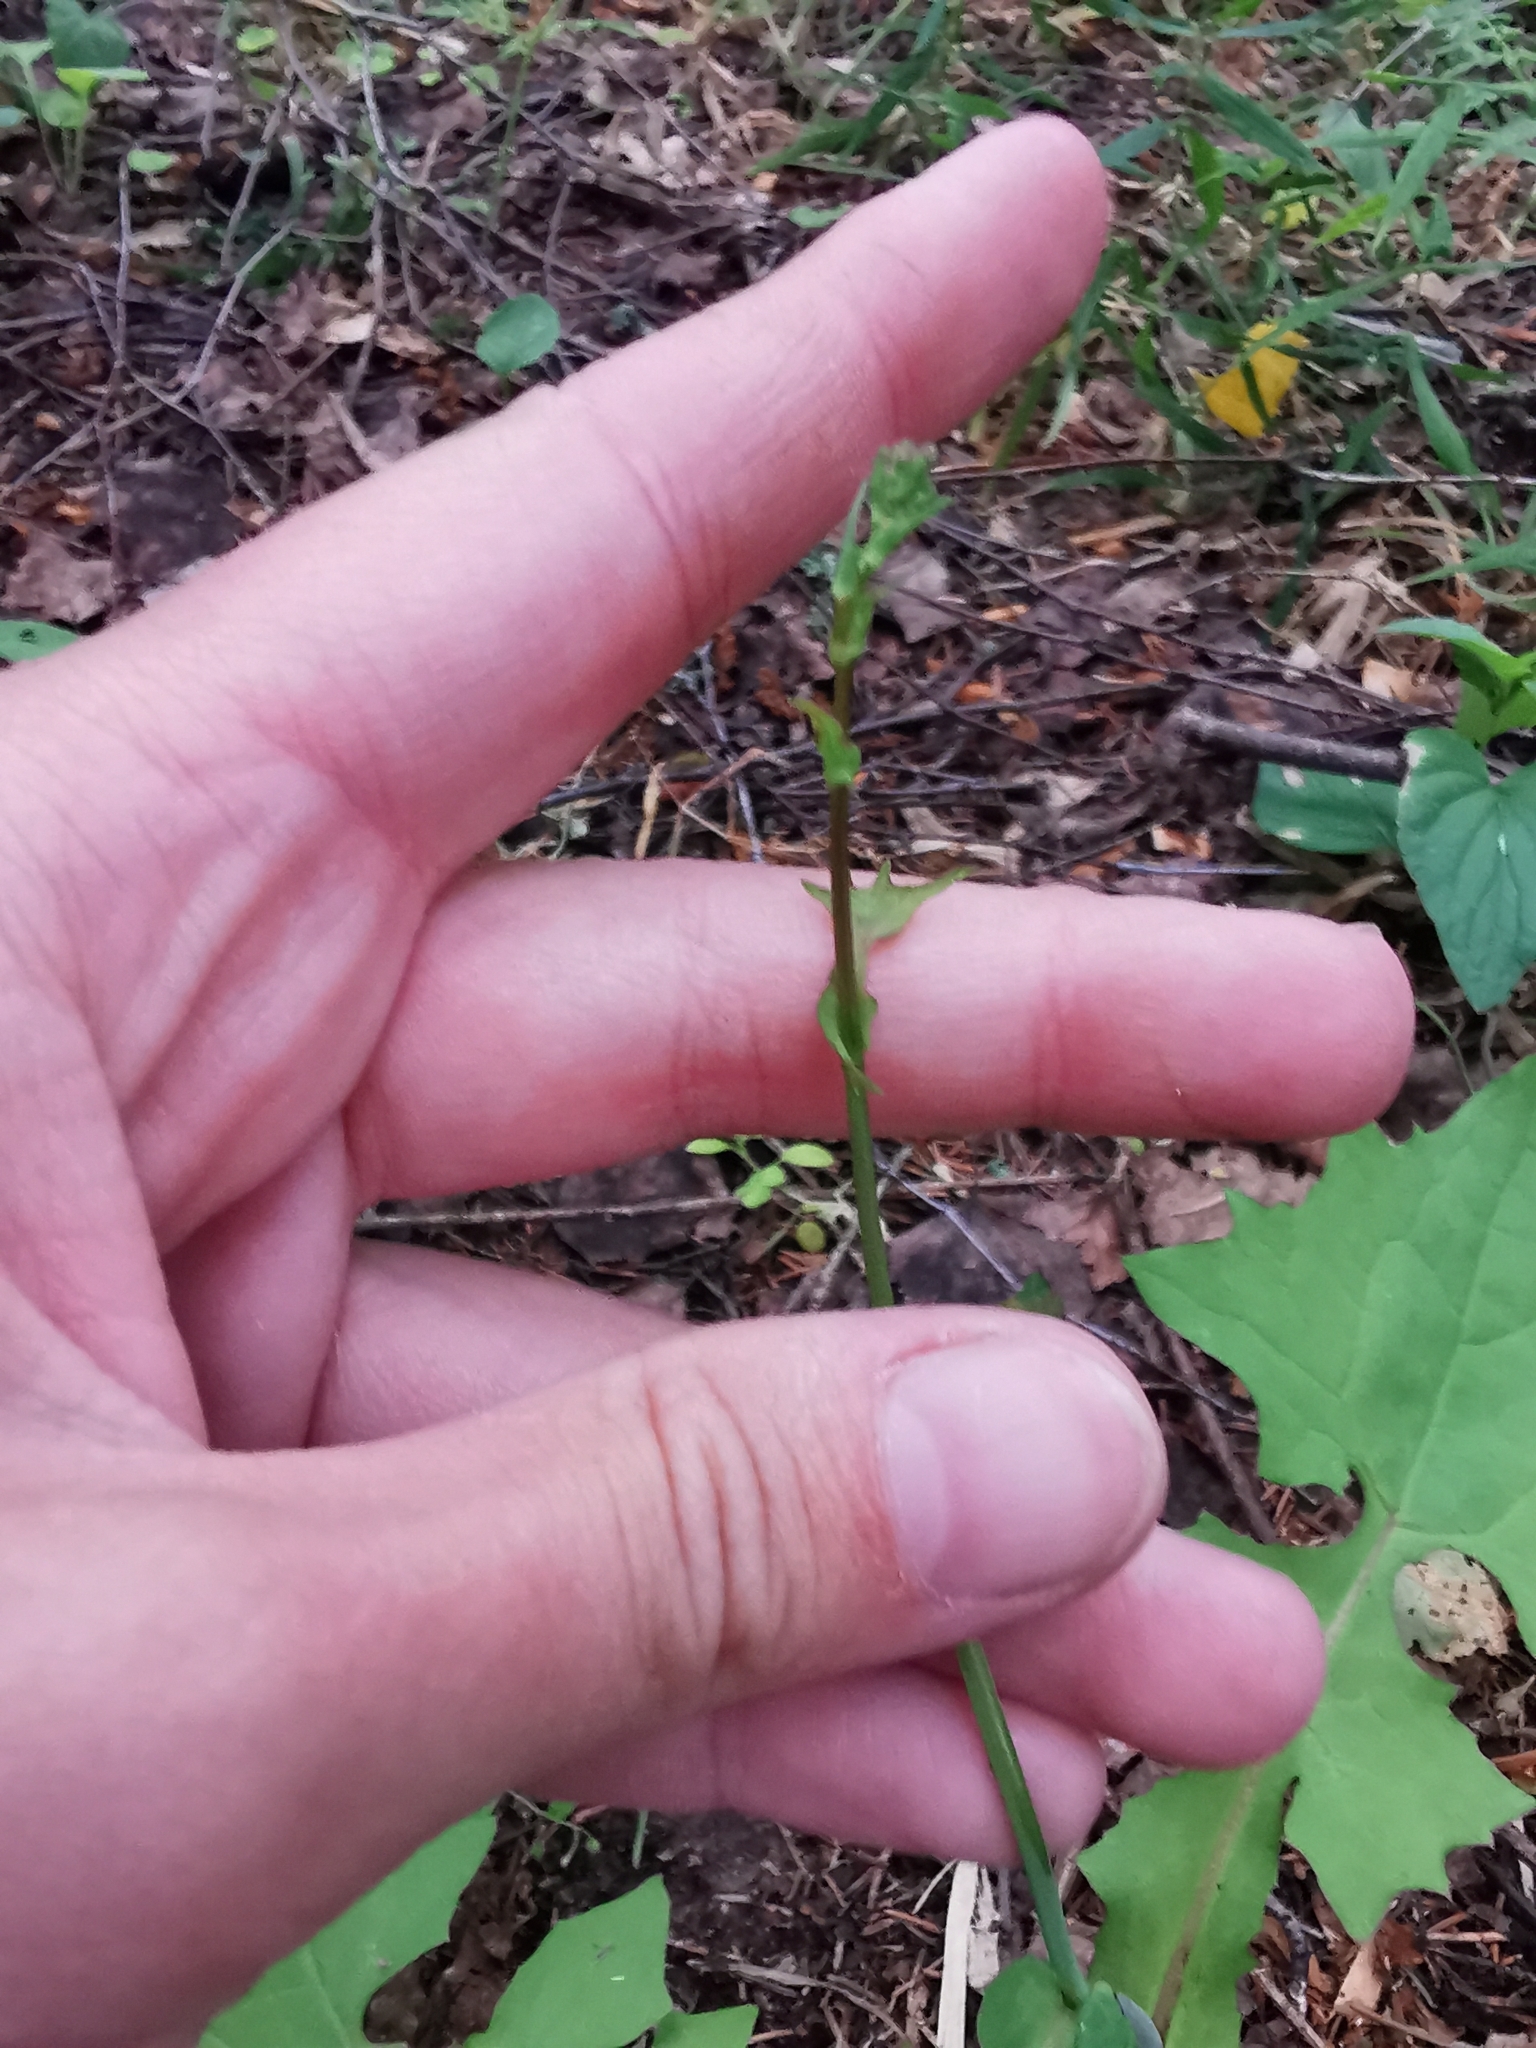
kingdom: Plantae
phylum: Tracheophyta
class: Magnoliopsida
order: Asterales
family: Asteraceae
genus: Mycelis
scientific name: Mycelis muralis
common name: Wall lettuce
